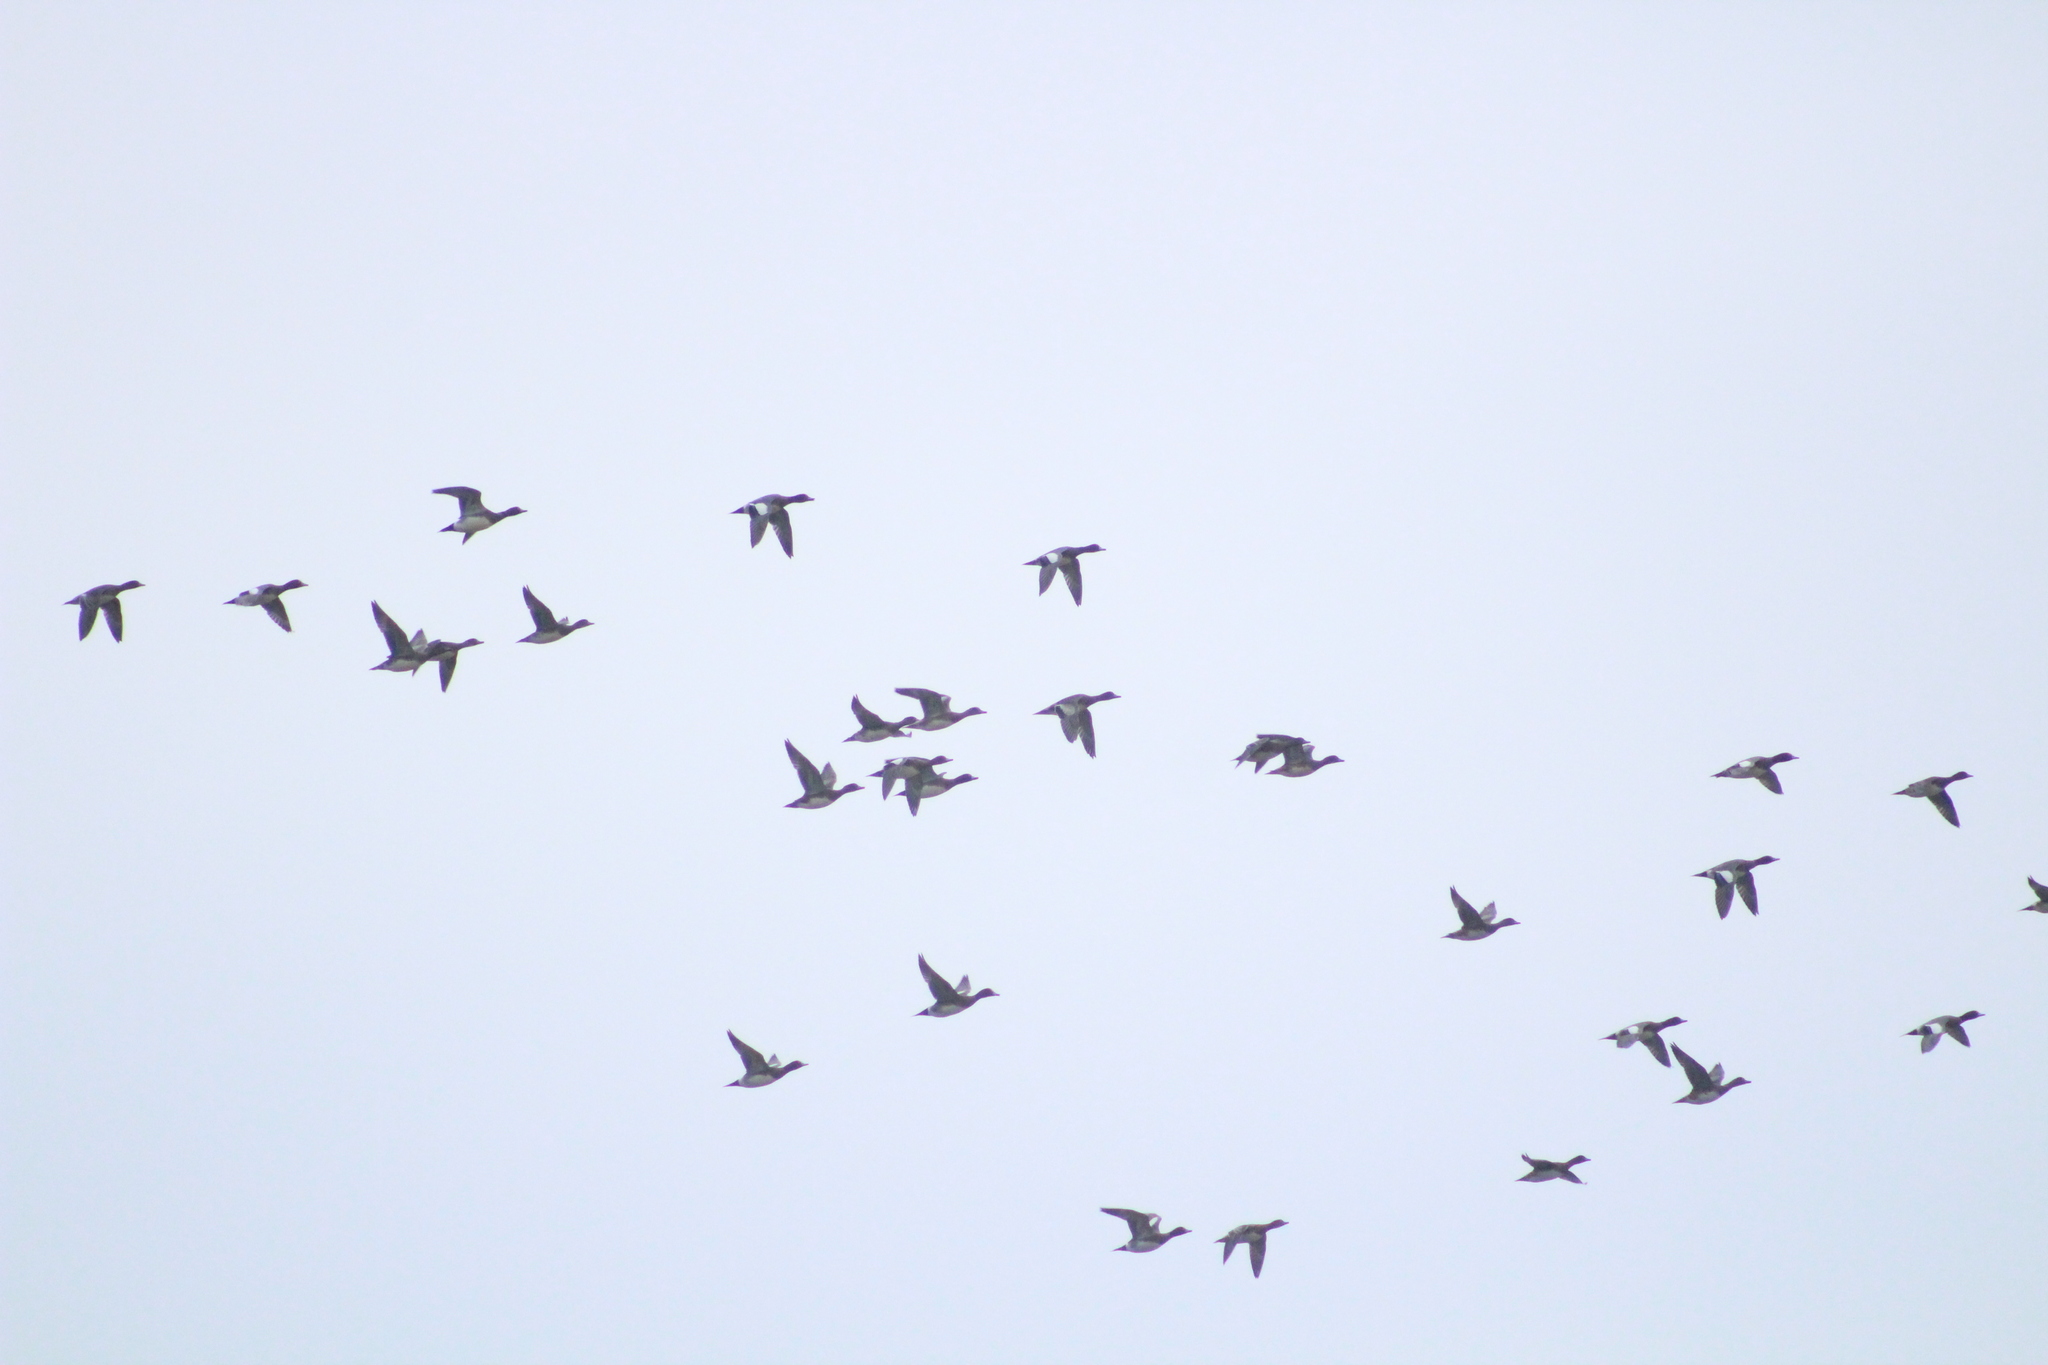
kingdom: Animalia
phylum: Chordata
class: Aves
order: Anseriformes
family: Anatidae
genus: Mareca
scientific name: Mareca penelope
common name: Eurasian wigeon
